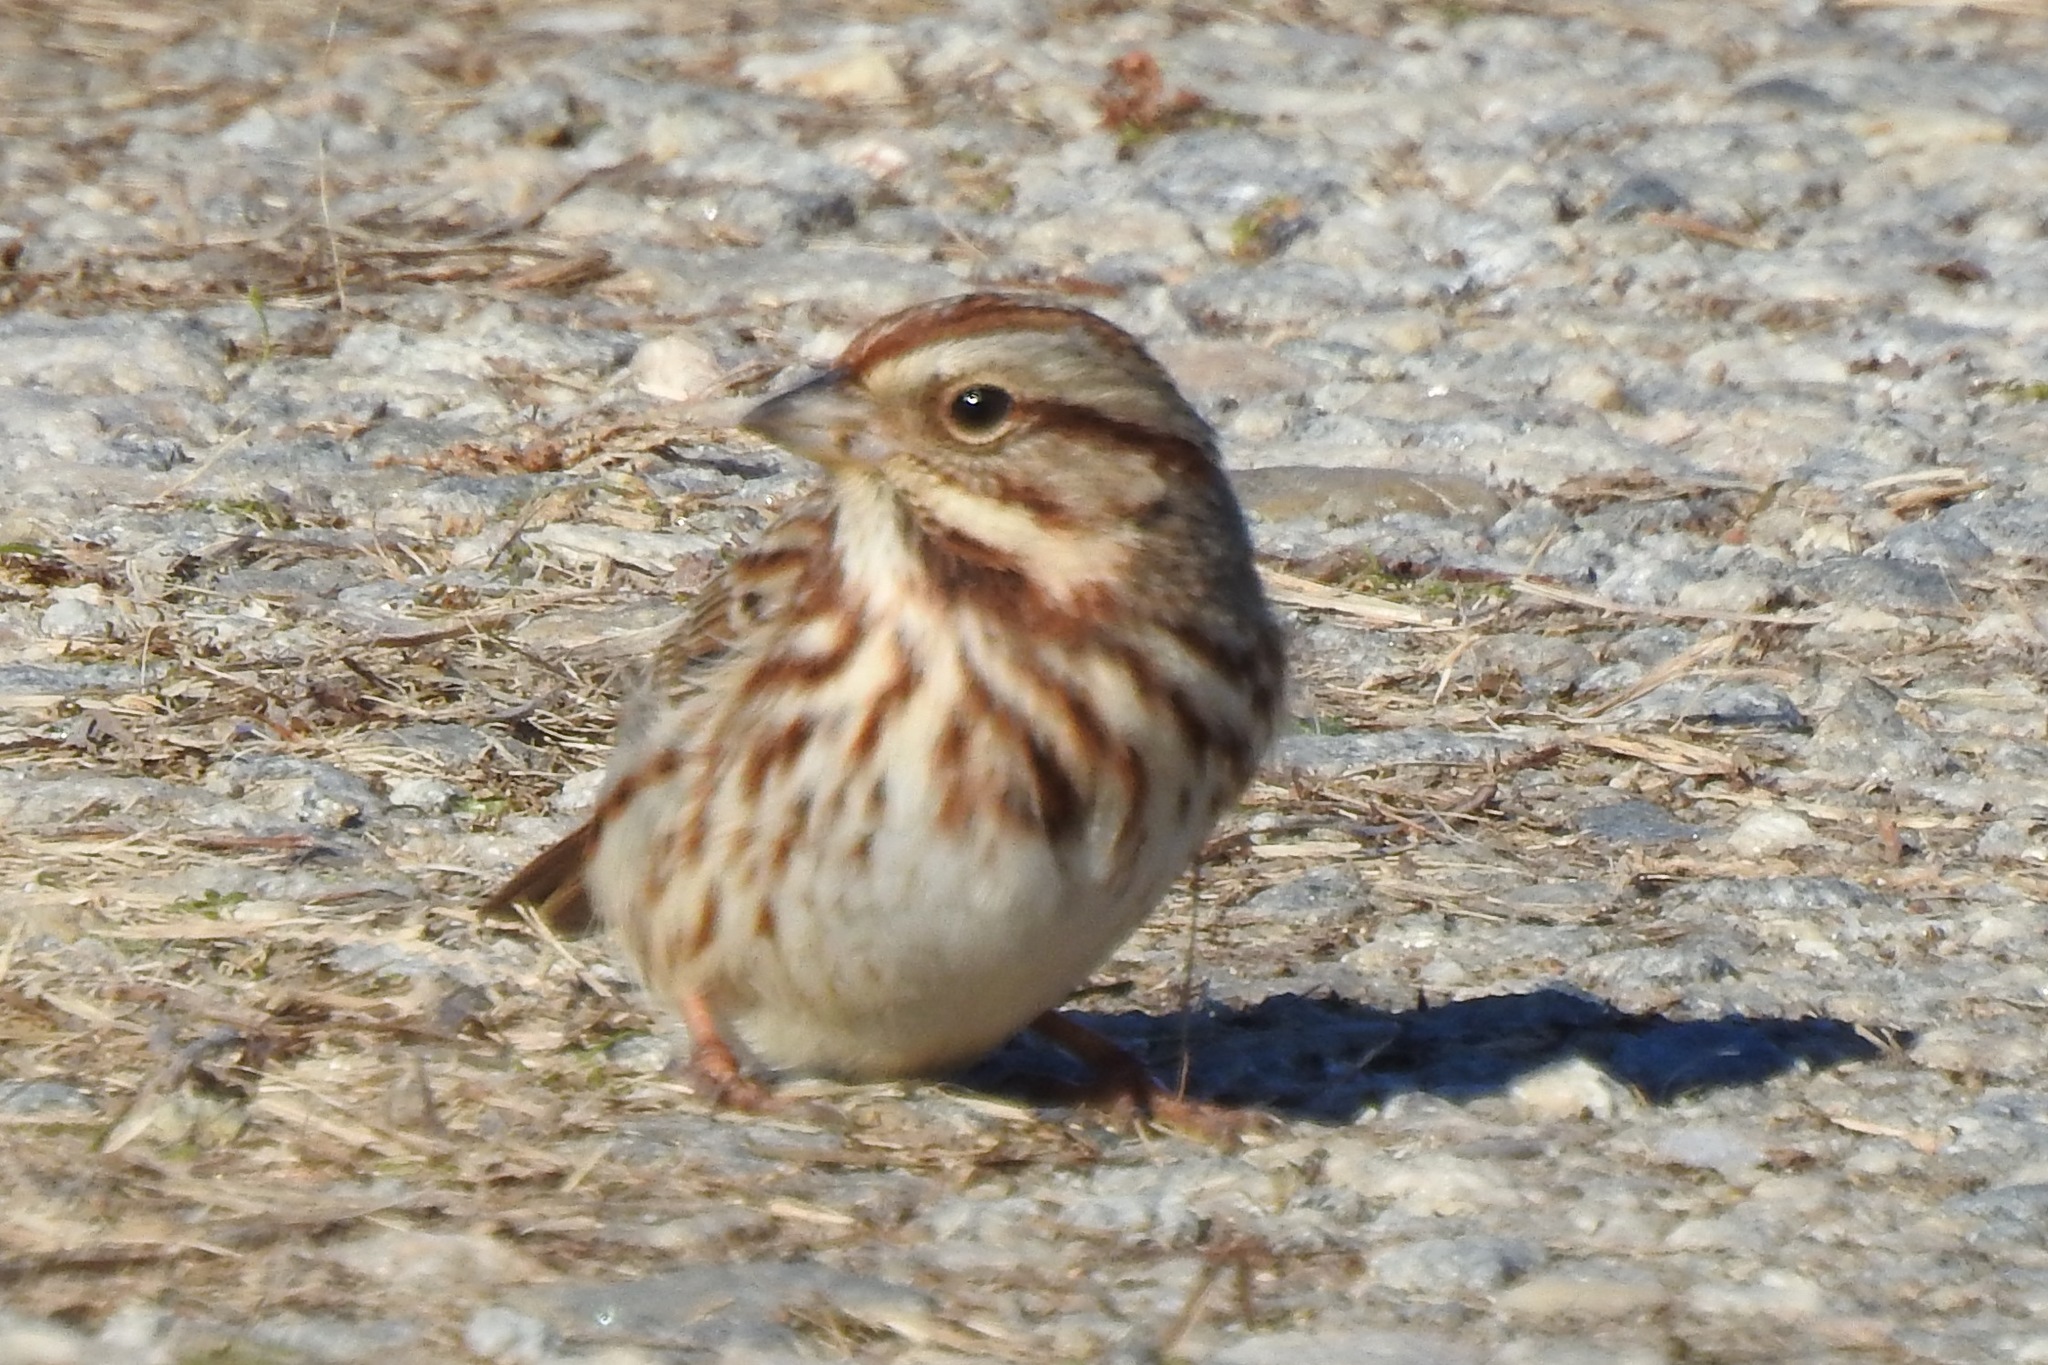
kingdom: Animalia
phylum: Chordata
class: Aves
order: Passeriformes
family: Passerellidae
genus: Melospiza
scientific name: Melospiza melodia
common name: Song sparrow
